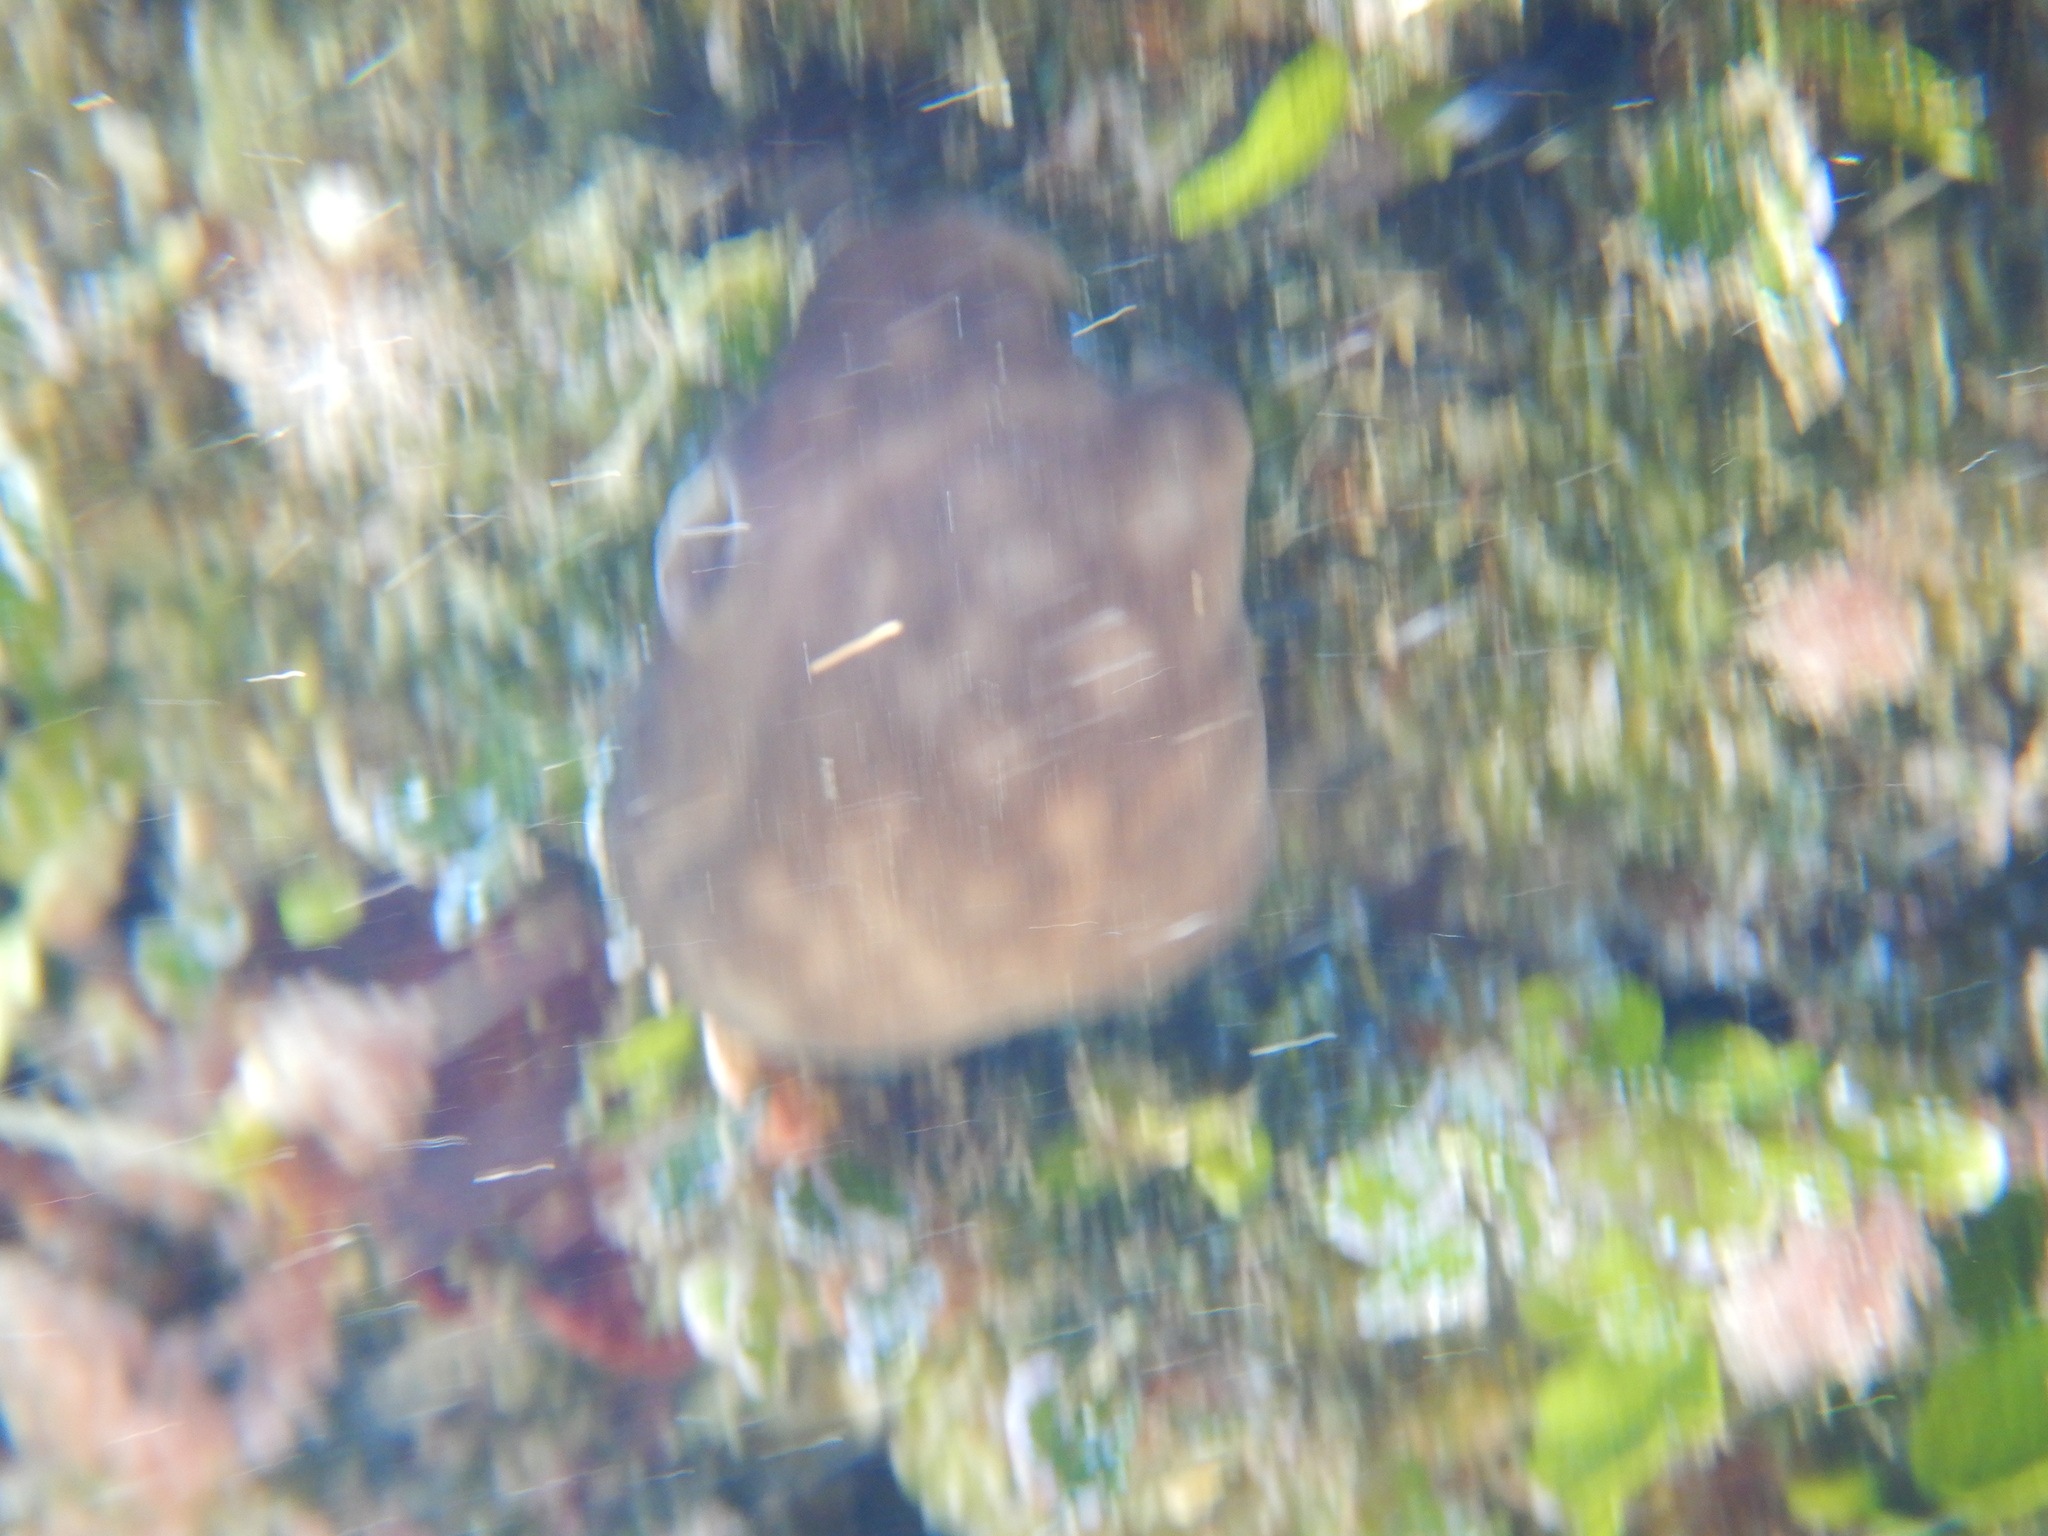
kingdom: Animalia
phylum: Porifera
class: Demospongiae
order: Chondrosiida
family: Chondrosiidae
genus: Chondrosia
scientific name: Chondrosia reniformis
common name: Chicken liver sponge
